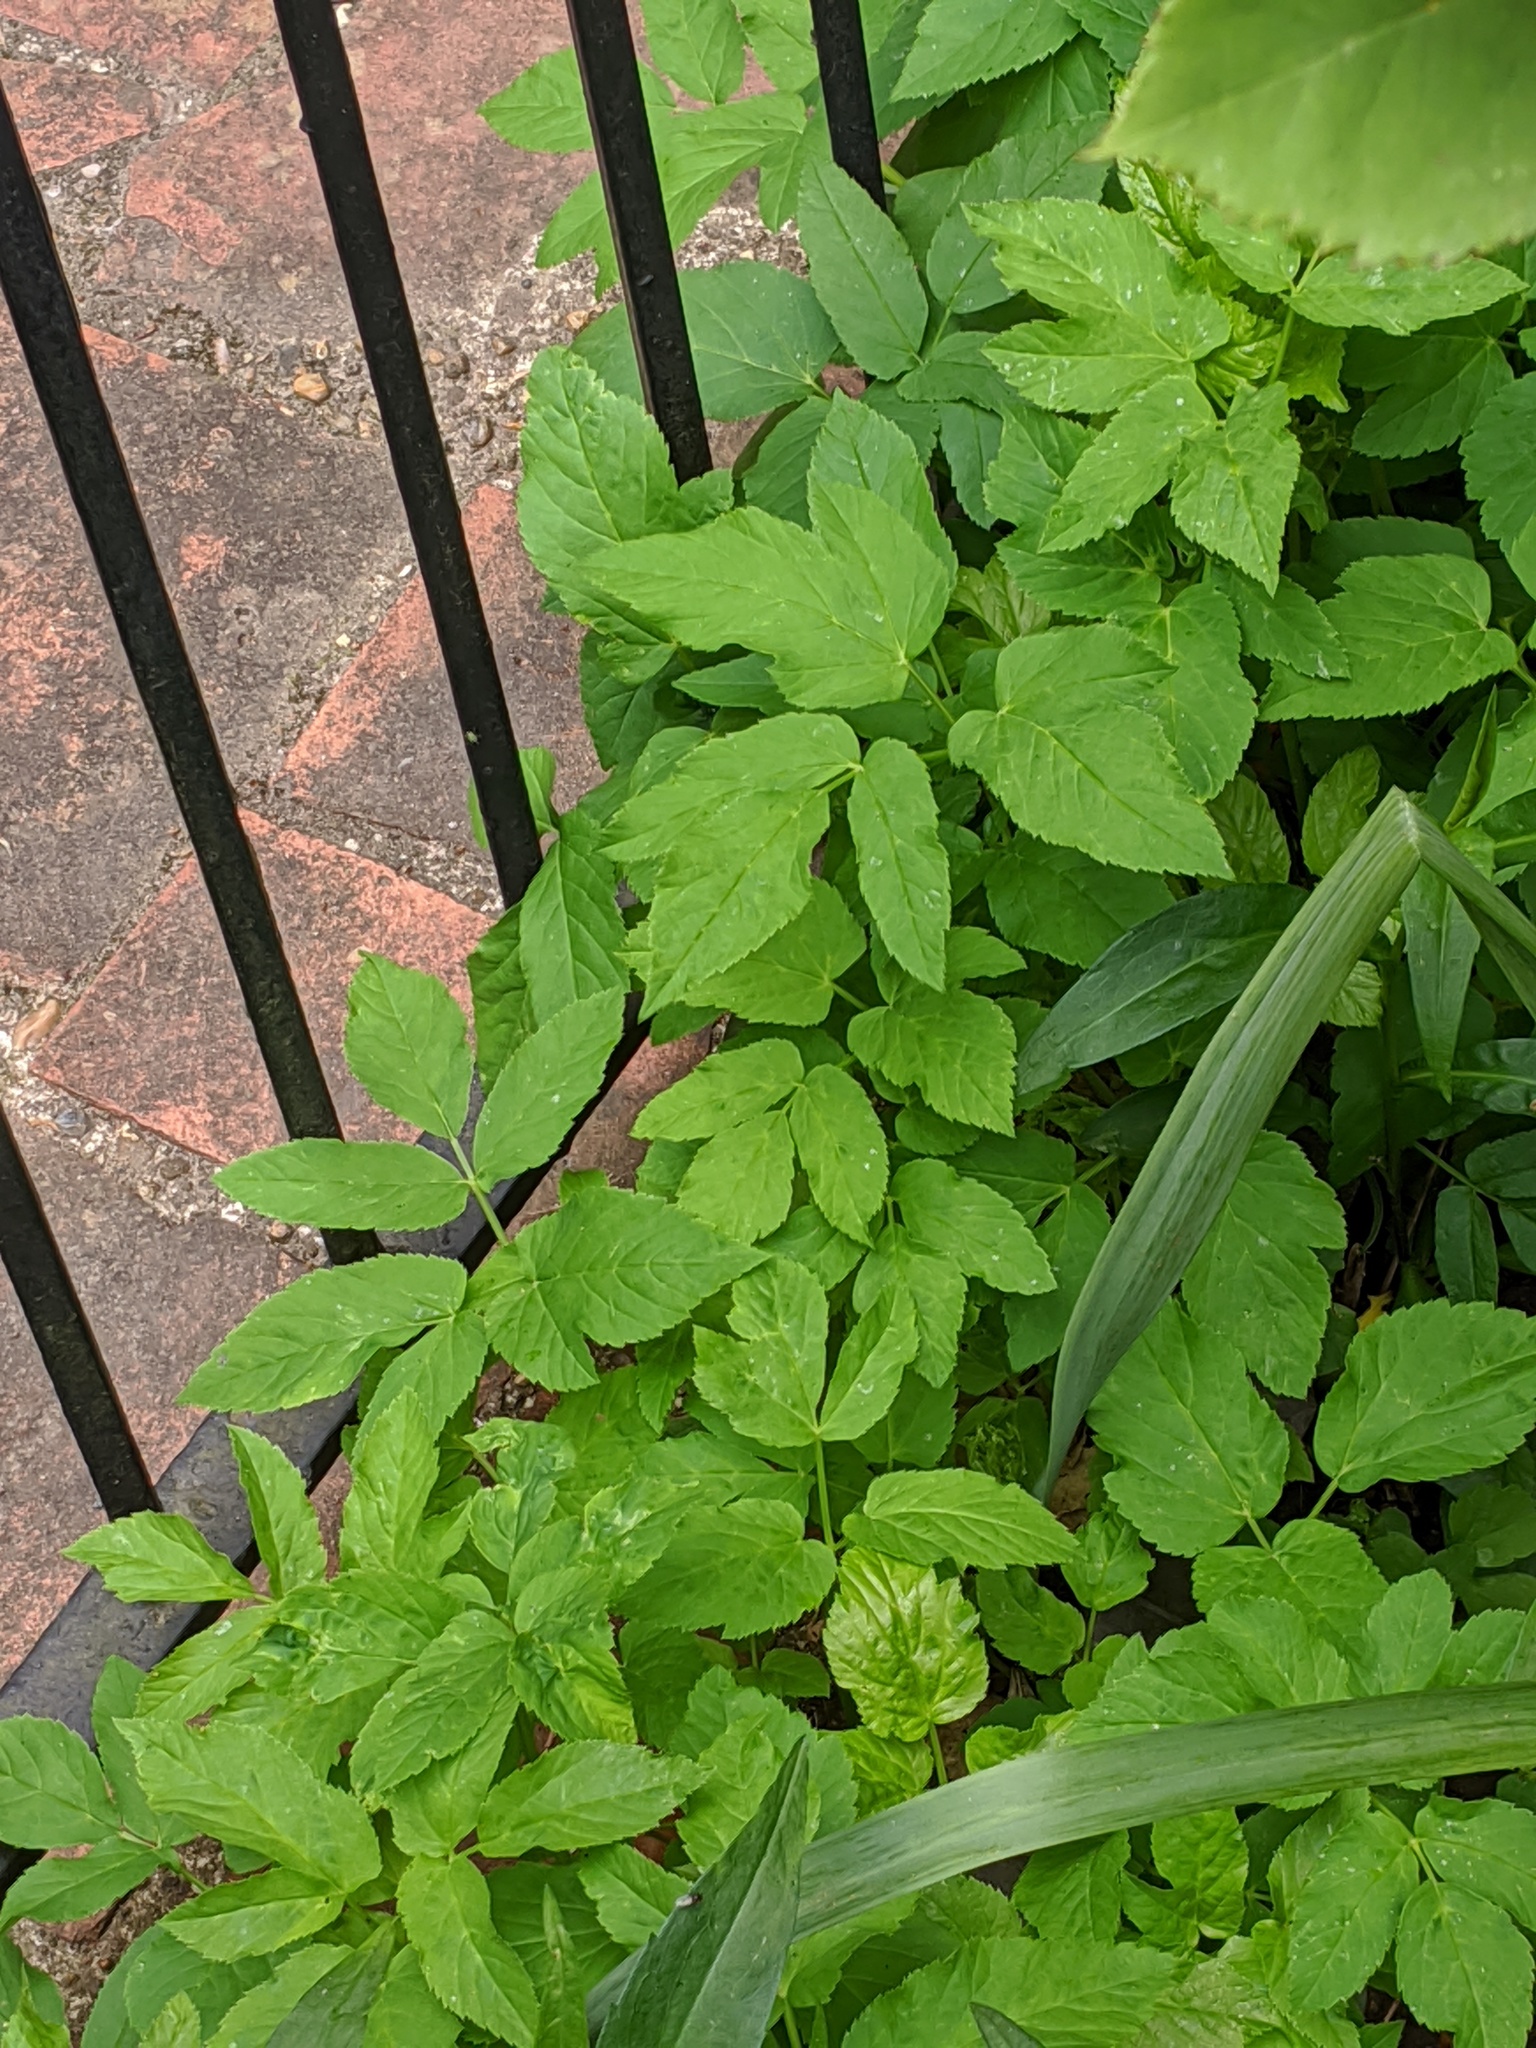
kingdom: Plantae
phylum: Tracheophyta
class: Magnoliopsida
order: Apiales
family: Apiaceae
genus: Aegopodium
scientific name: Aegopodium podagraria
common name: Ground-elder
